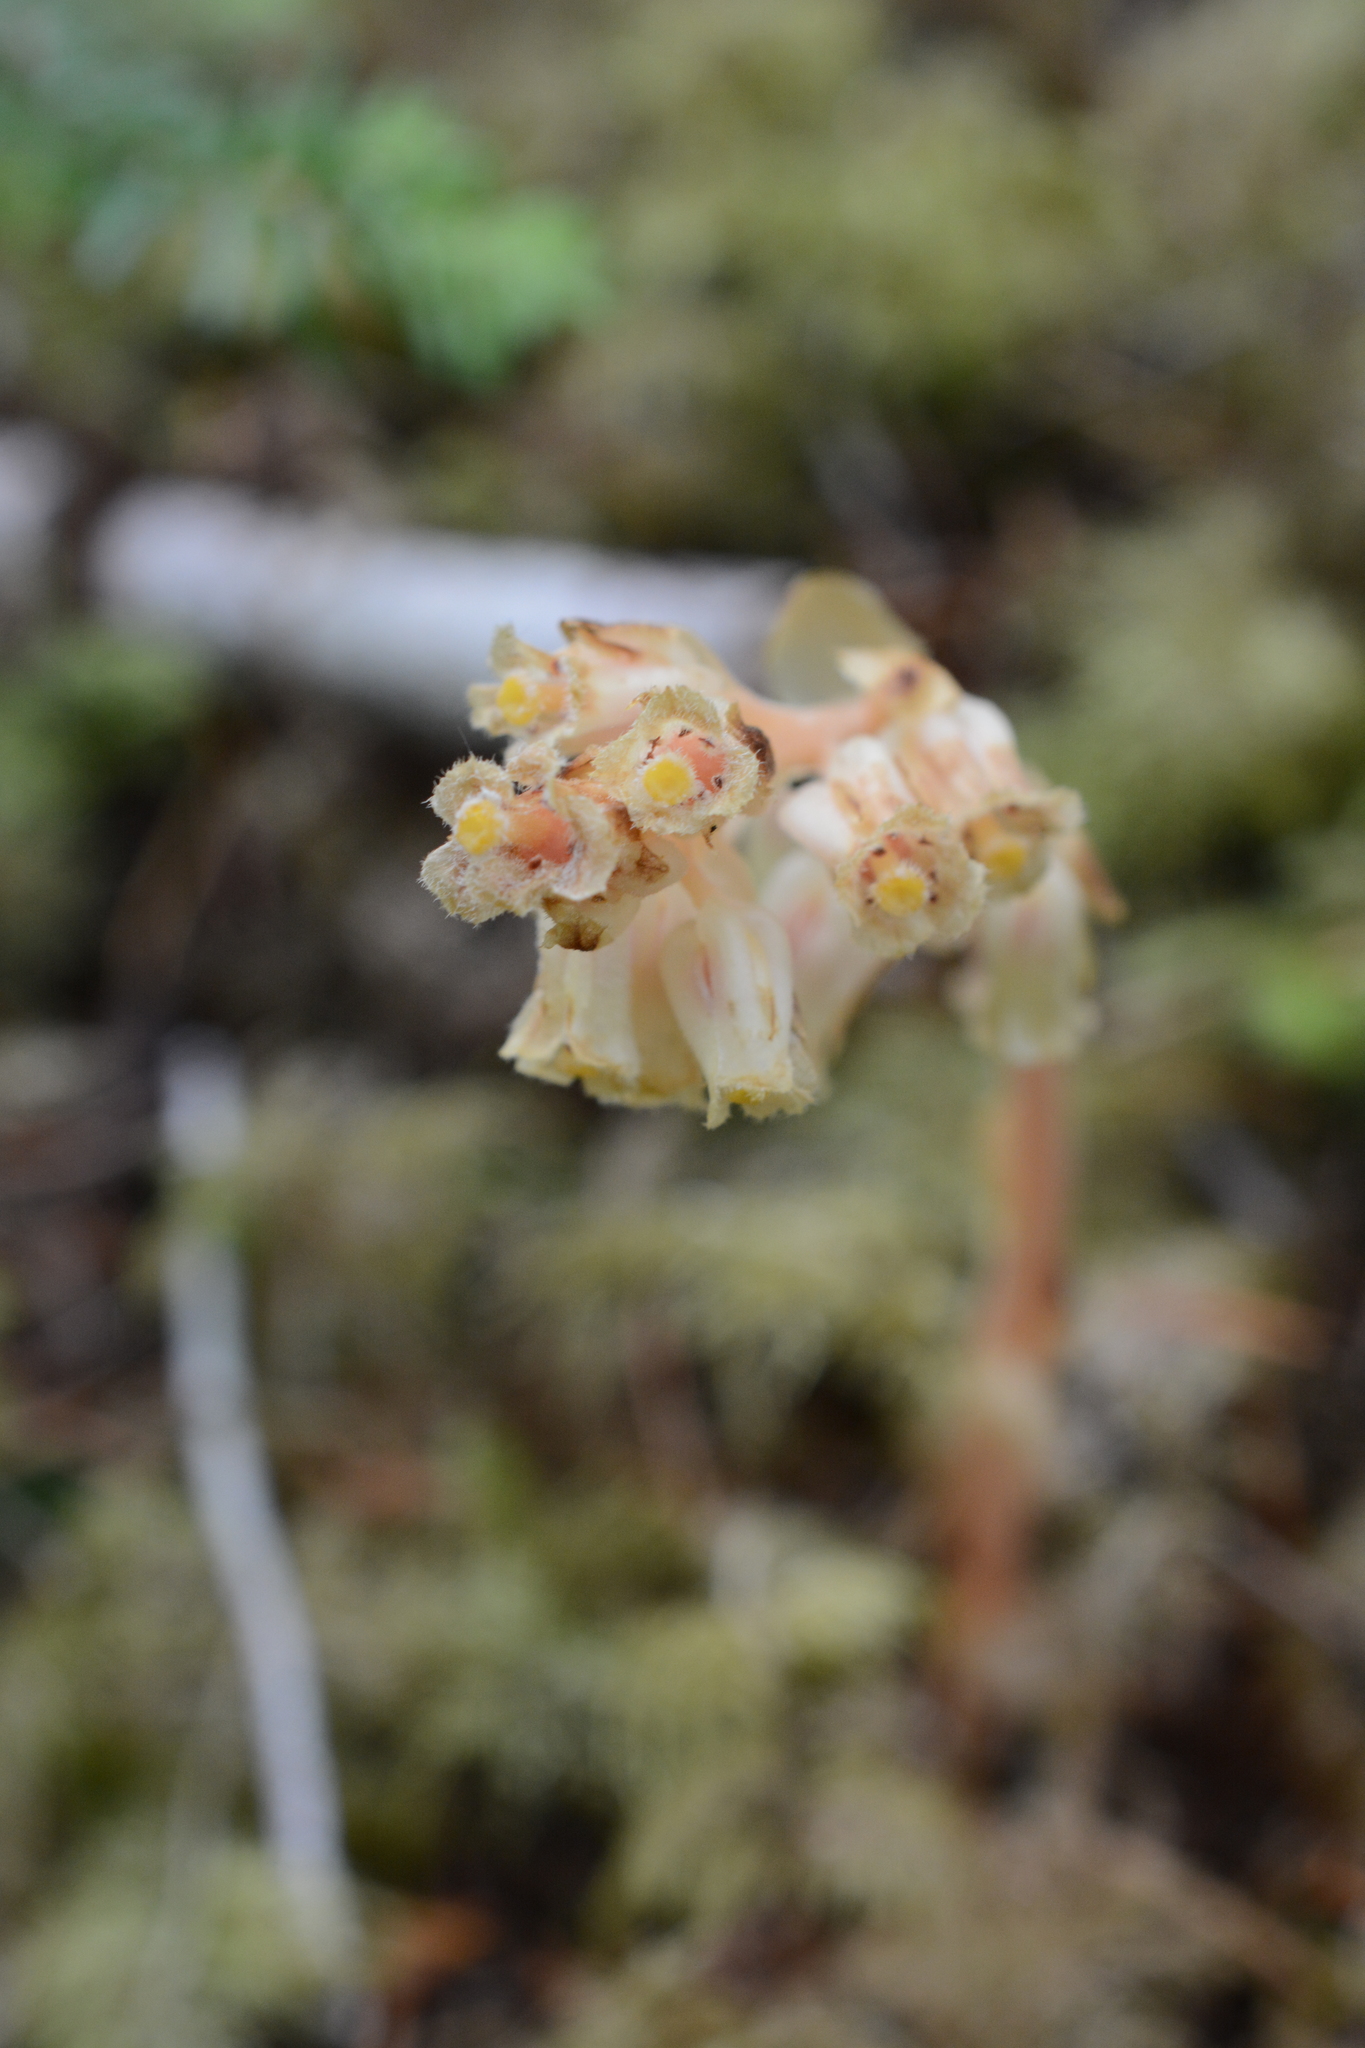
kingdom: Plantae
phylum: Tracheophyta
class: Magnoliopsida
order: Ericales
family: Ericaceae
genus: Hypopitys
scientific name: Hypopitys monotropa
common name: Yellow bird's-nest
